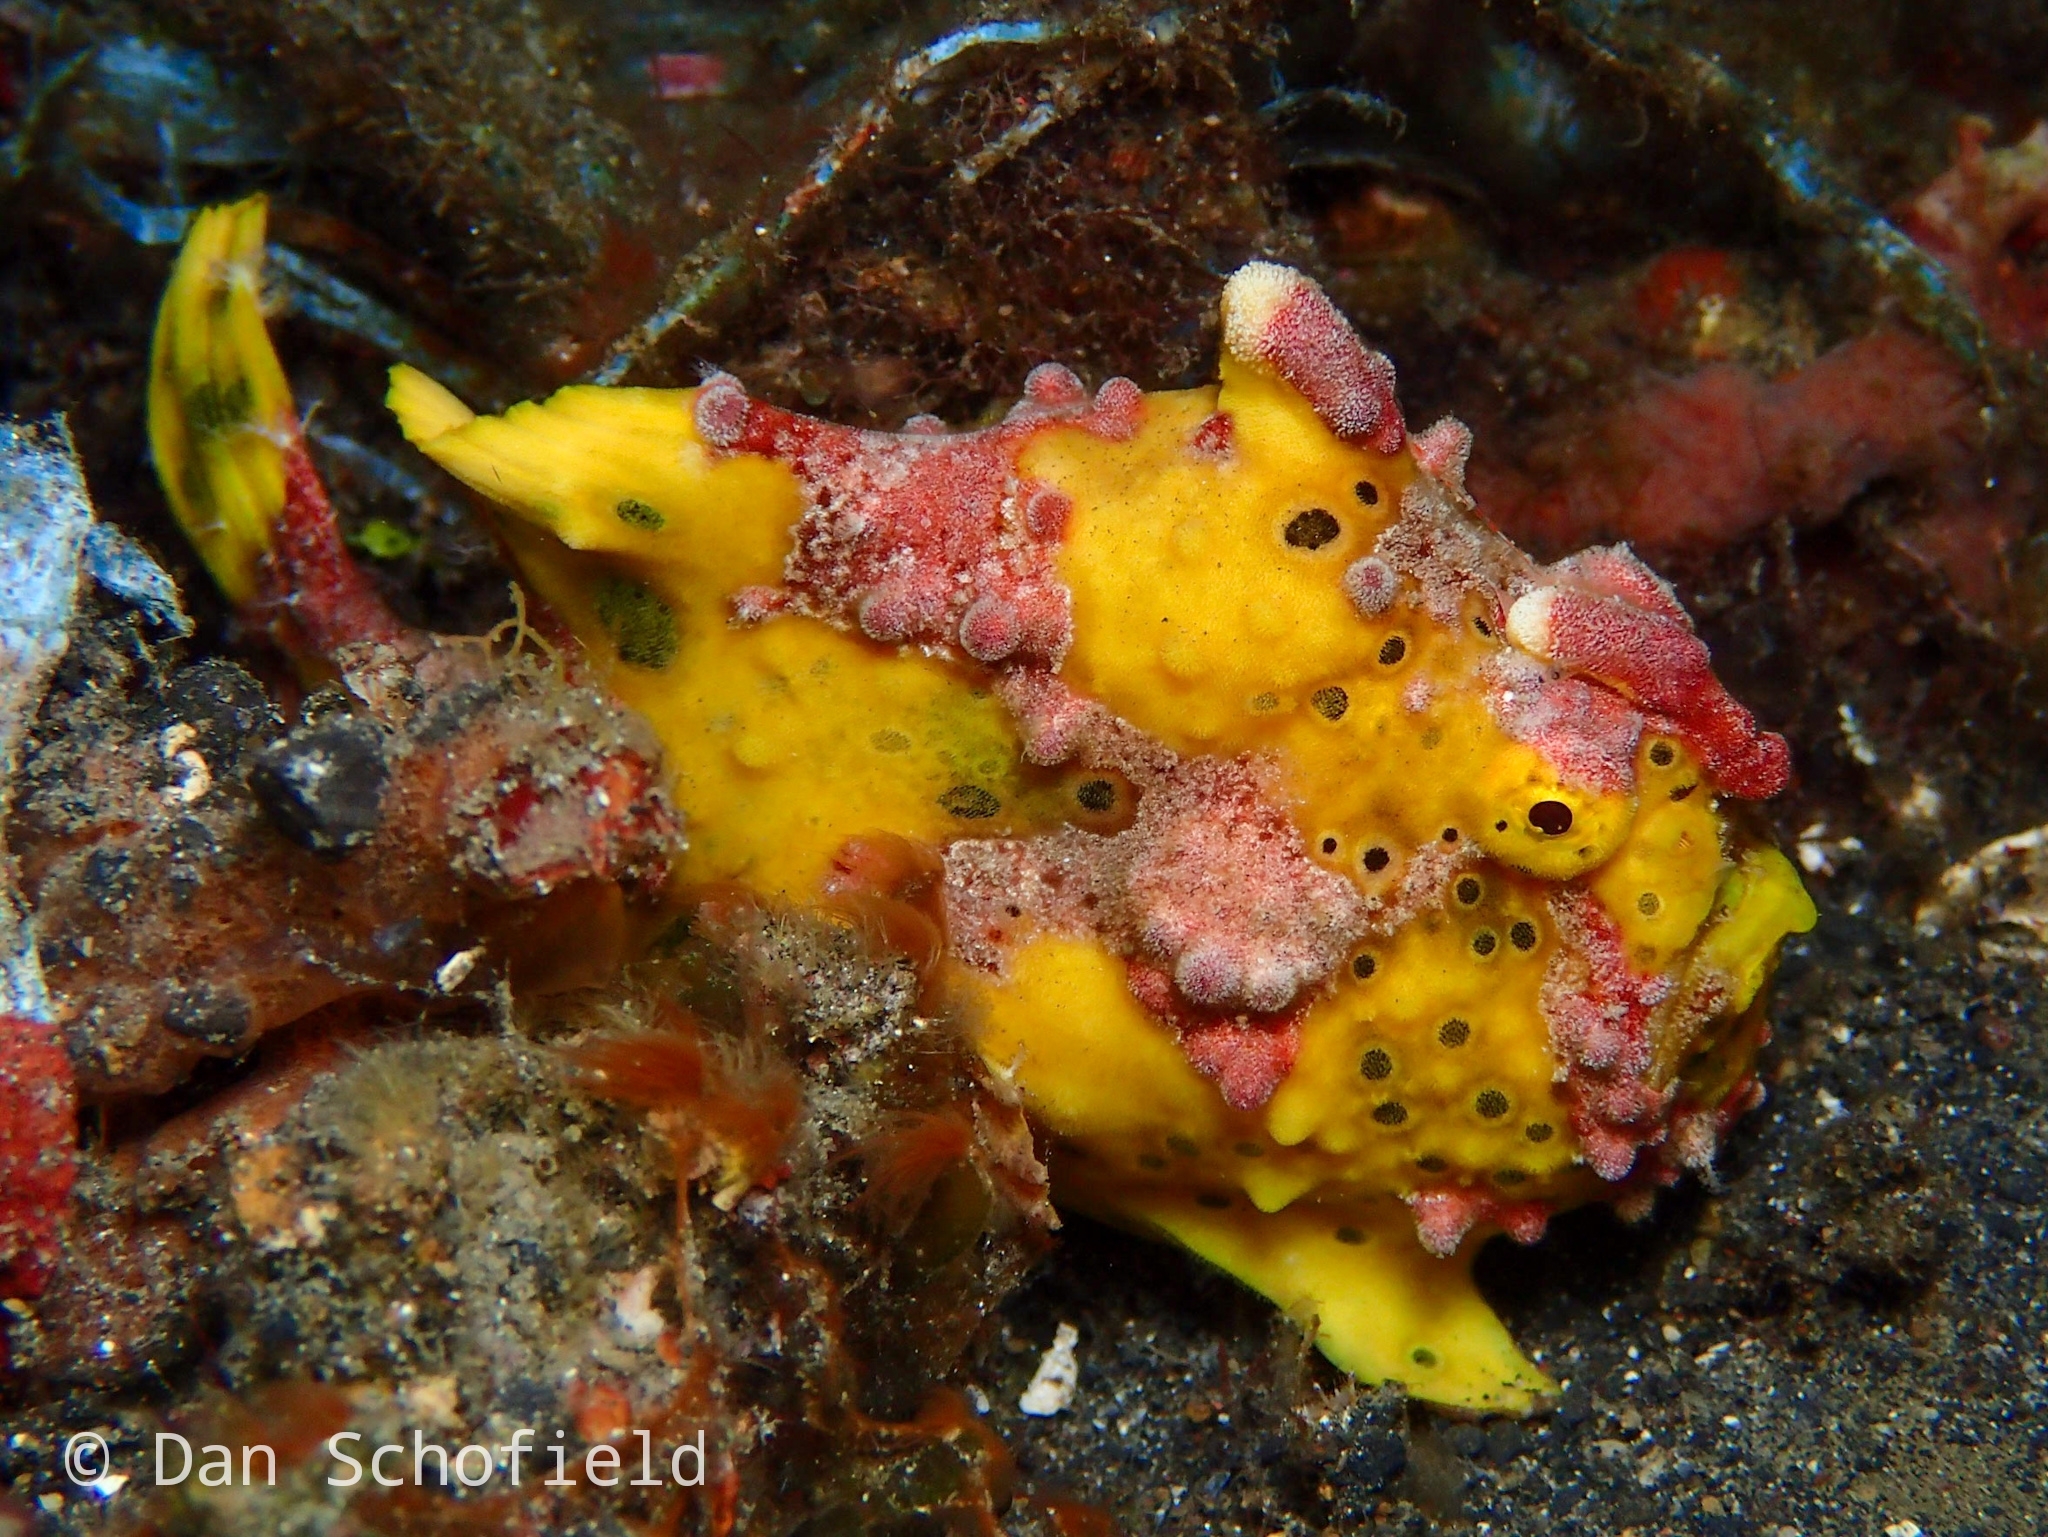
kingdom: Animalia
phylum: Chordata
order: Lophiiformes
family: Antennariidae
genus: Antennarius
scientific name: Antennarius maculatus
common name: Warty frogfish
